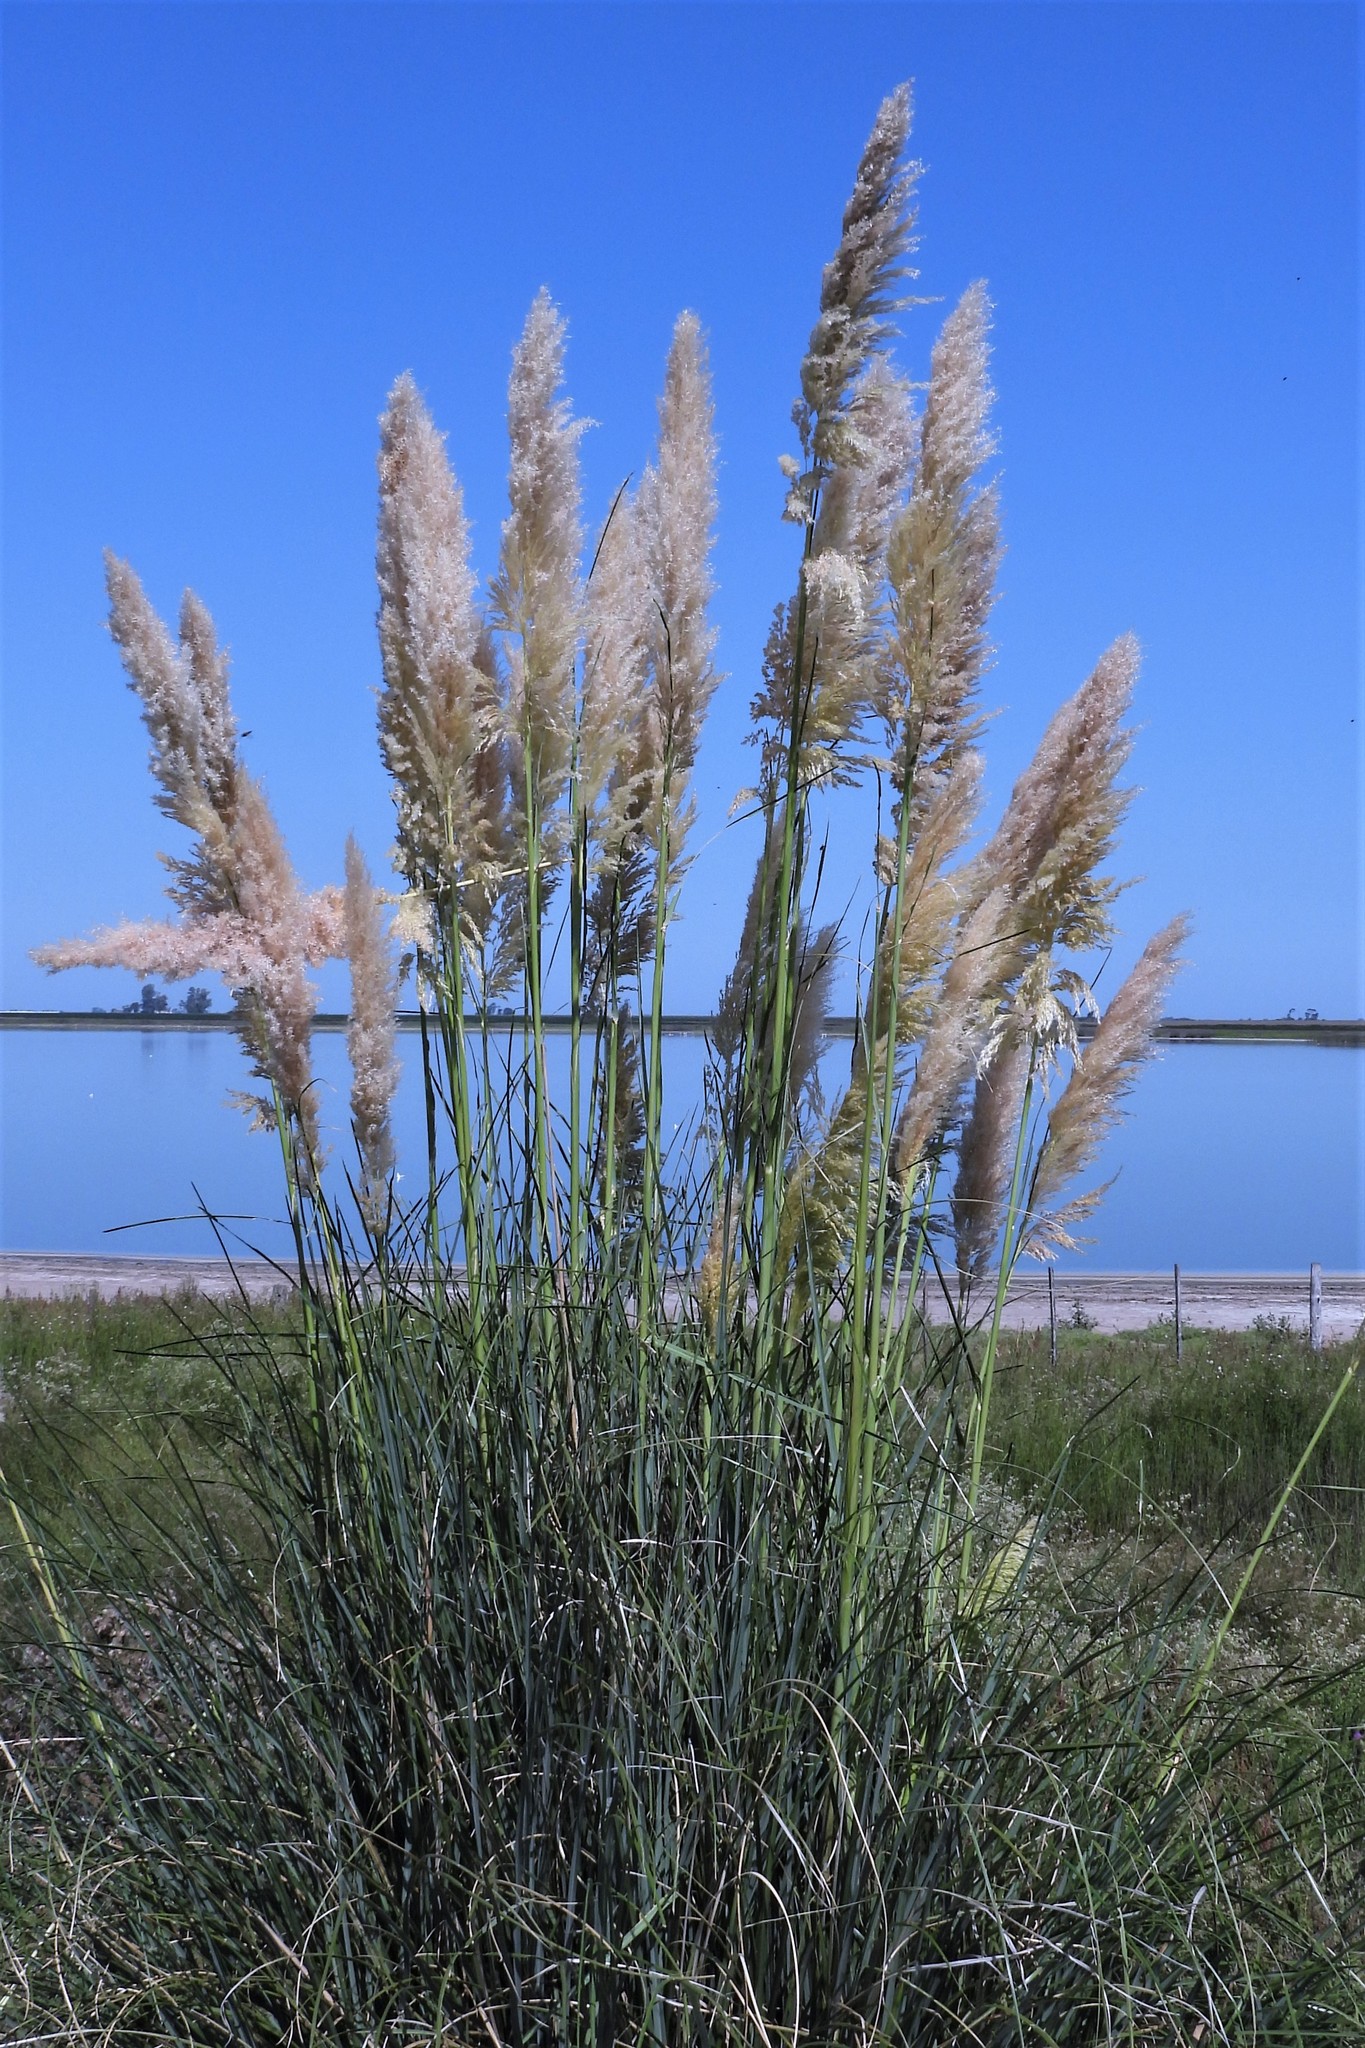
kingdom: Plantae
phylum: Tracheophyta
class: Liliopsida
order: Poales
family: Poaceae
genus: Cortaderia
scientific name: Cortaderia selloana
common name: Uruguayan pampas grass
